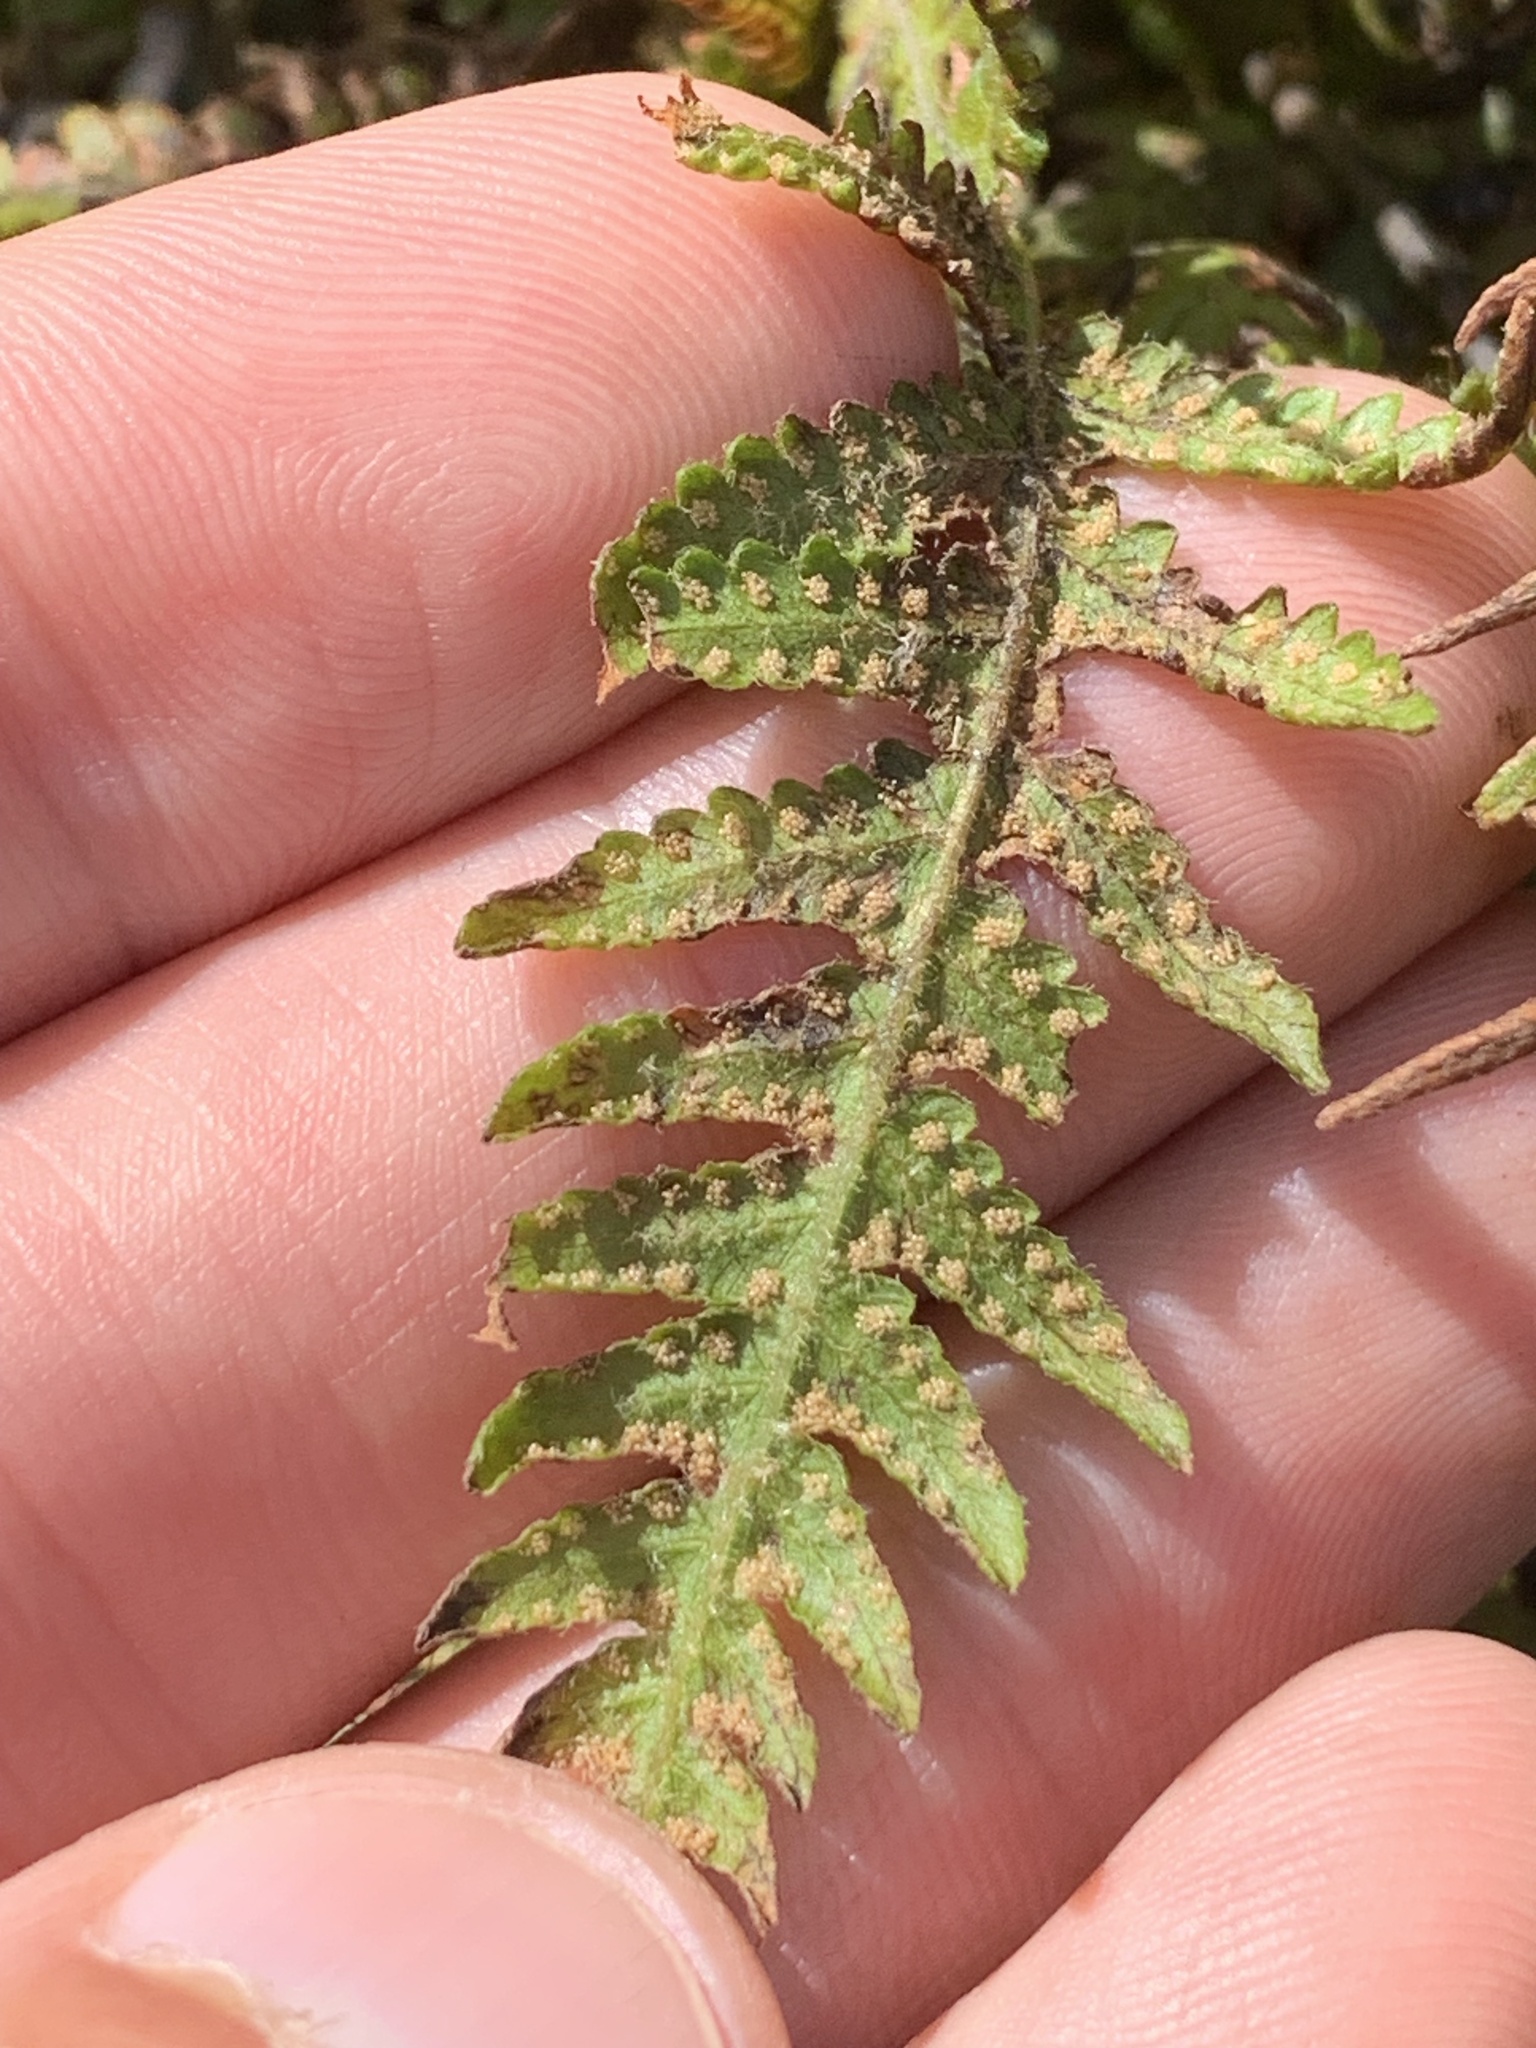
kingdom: Plantae
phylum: Tracheophyta
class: Polypodiopsida
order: Polypodiales
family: Thelypteridaceae
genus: Phegopteris
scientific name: Phegopteris connectilis
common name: Beech fern
